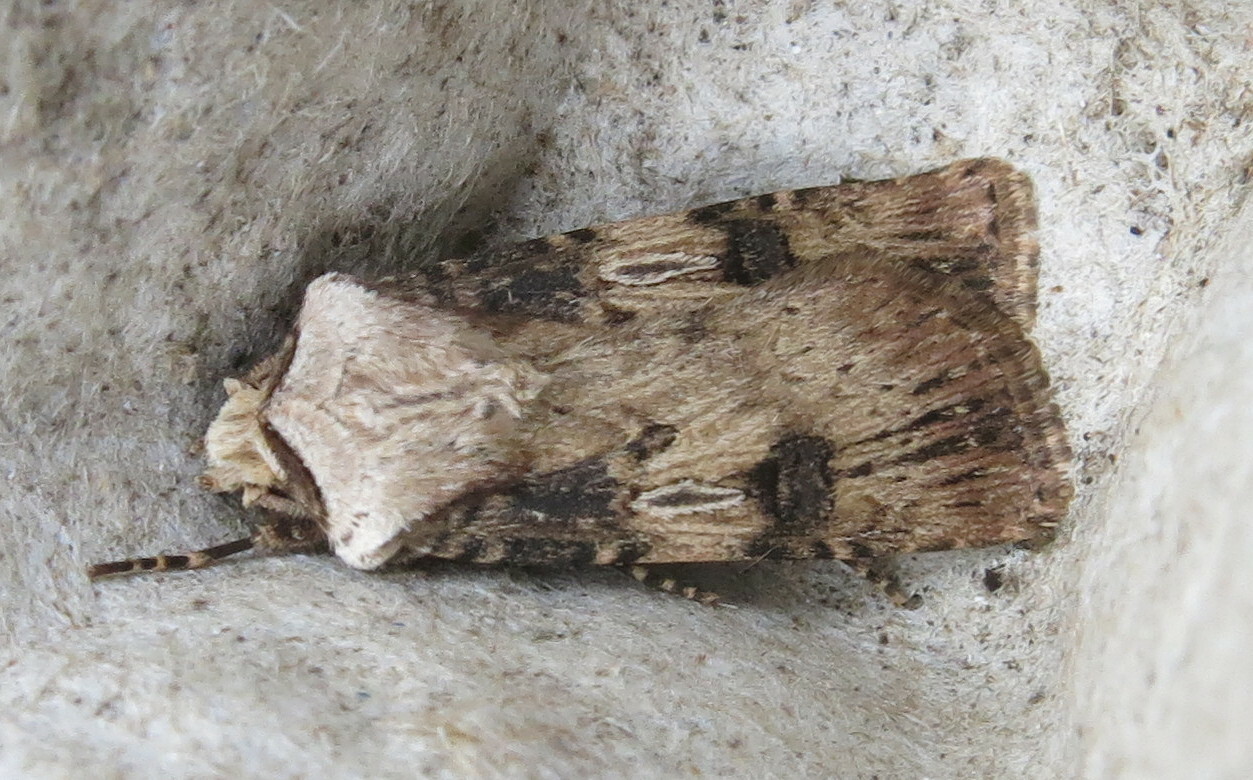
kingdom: Animalia
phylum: Arthropoda
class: Insecta
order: Lepidoptera
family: Noctuidae
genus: Agrotis
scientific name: Agrotis puta
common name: Shuttle-shaped dart
